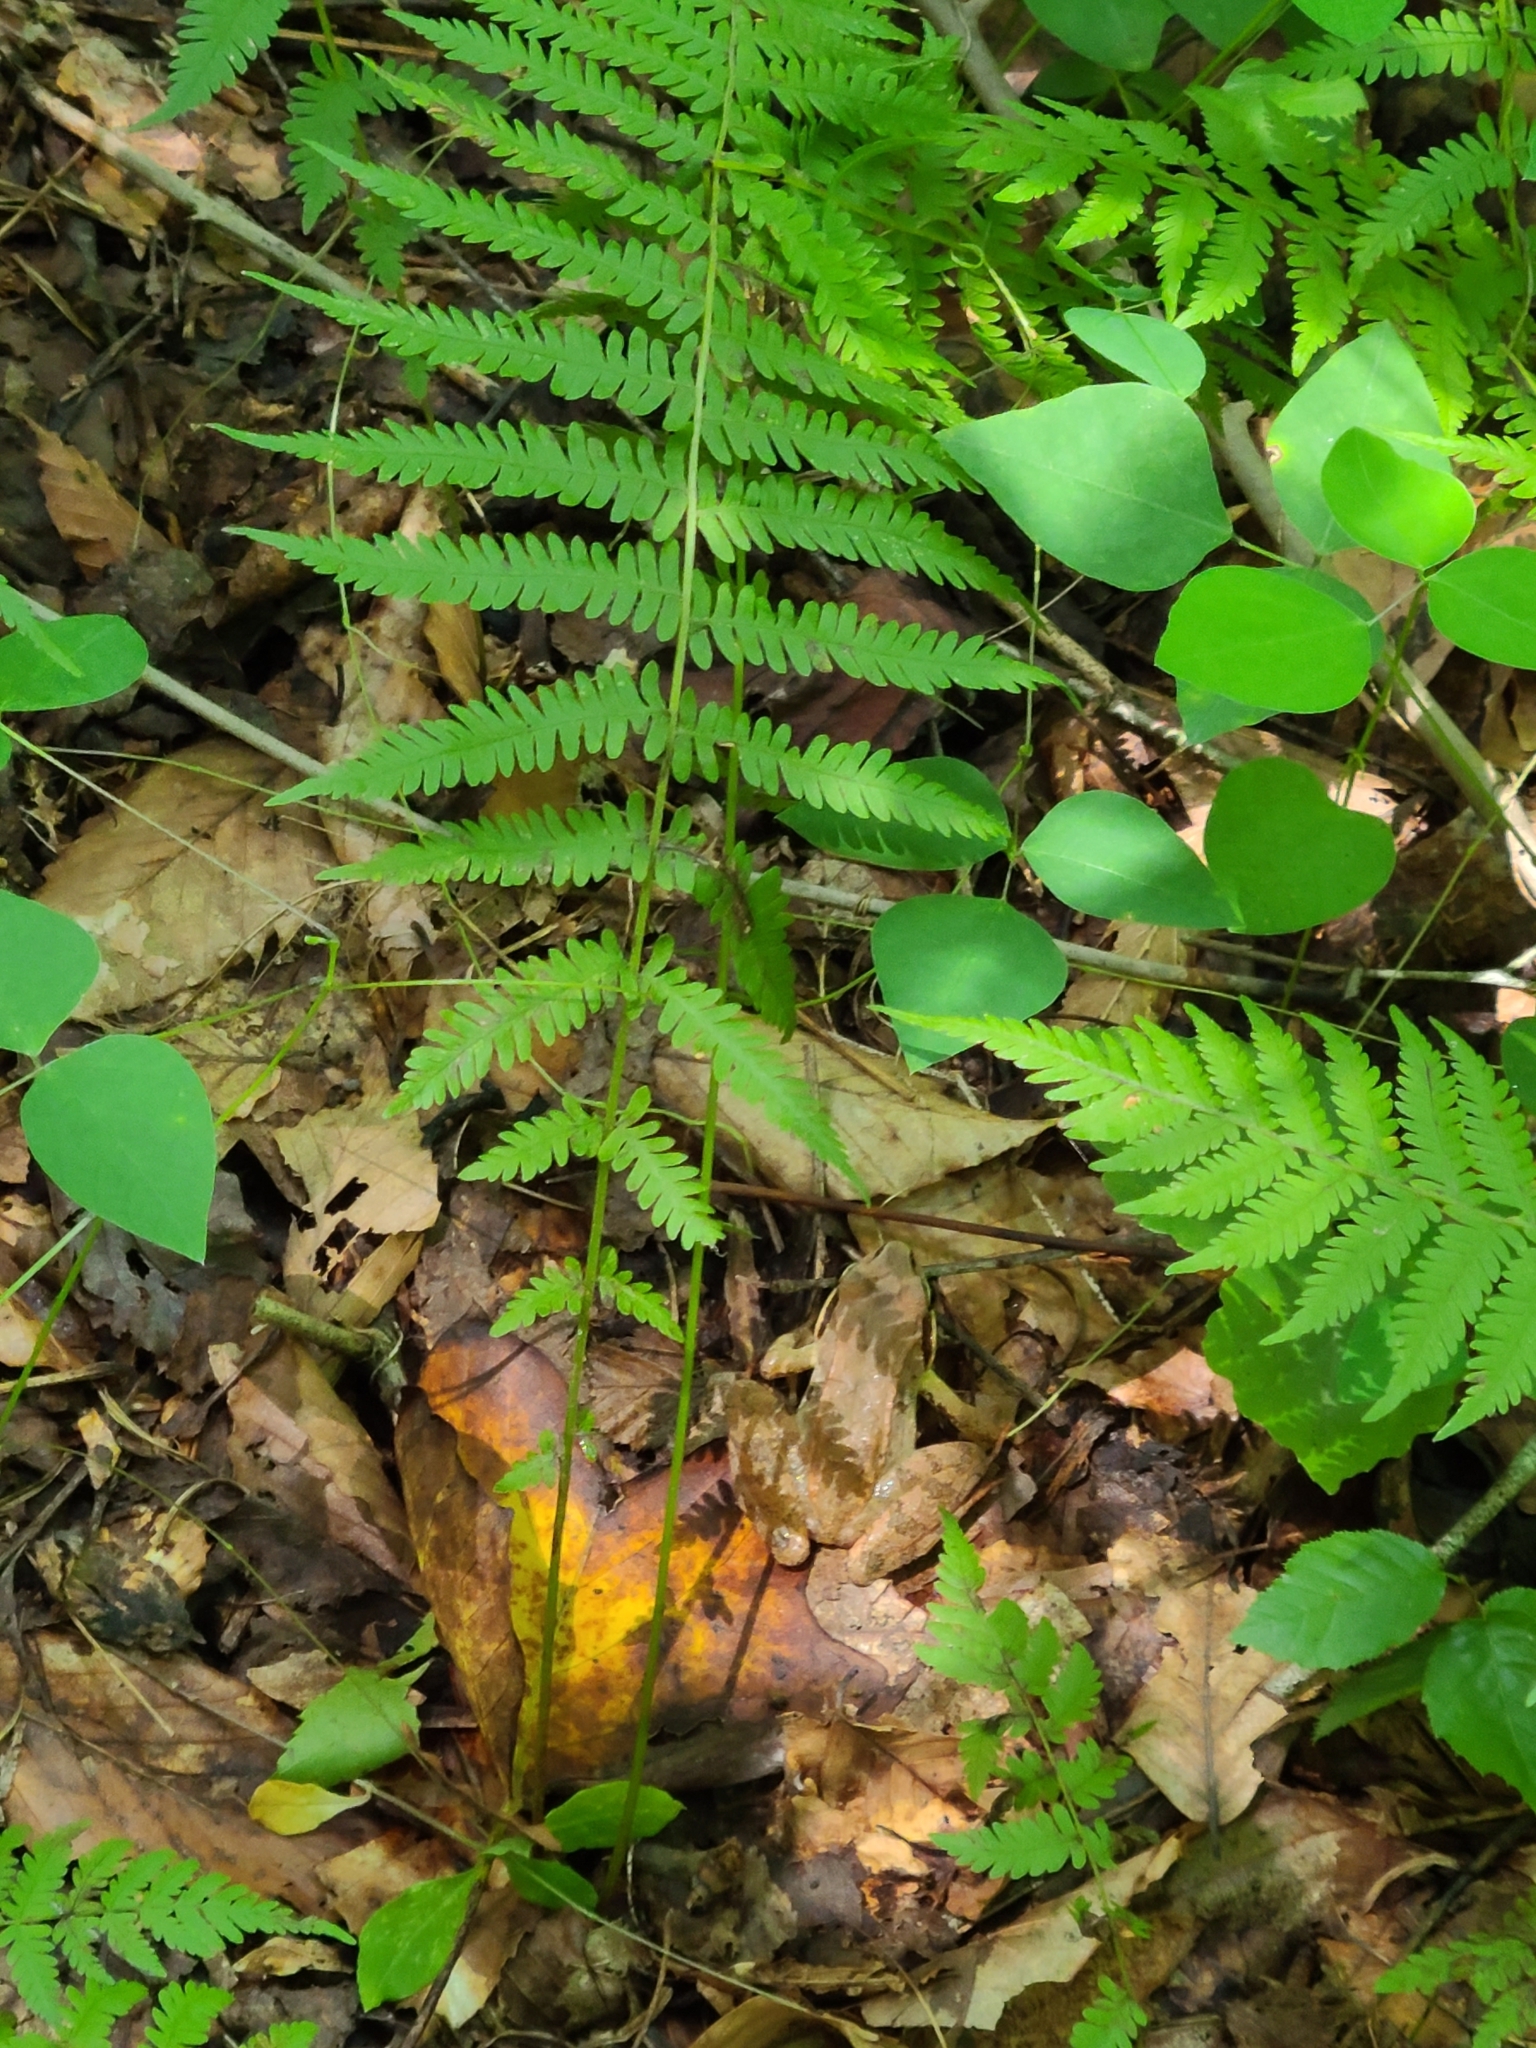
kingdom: Animalia
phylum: Chordata
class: Amphibia
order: Anura
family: Ranidae
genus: Lithobates
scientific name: Lithobates sylvaticus
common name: Wood frog
